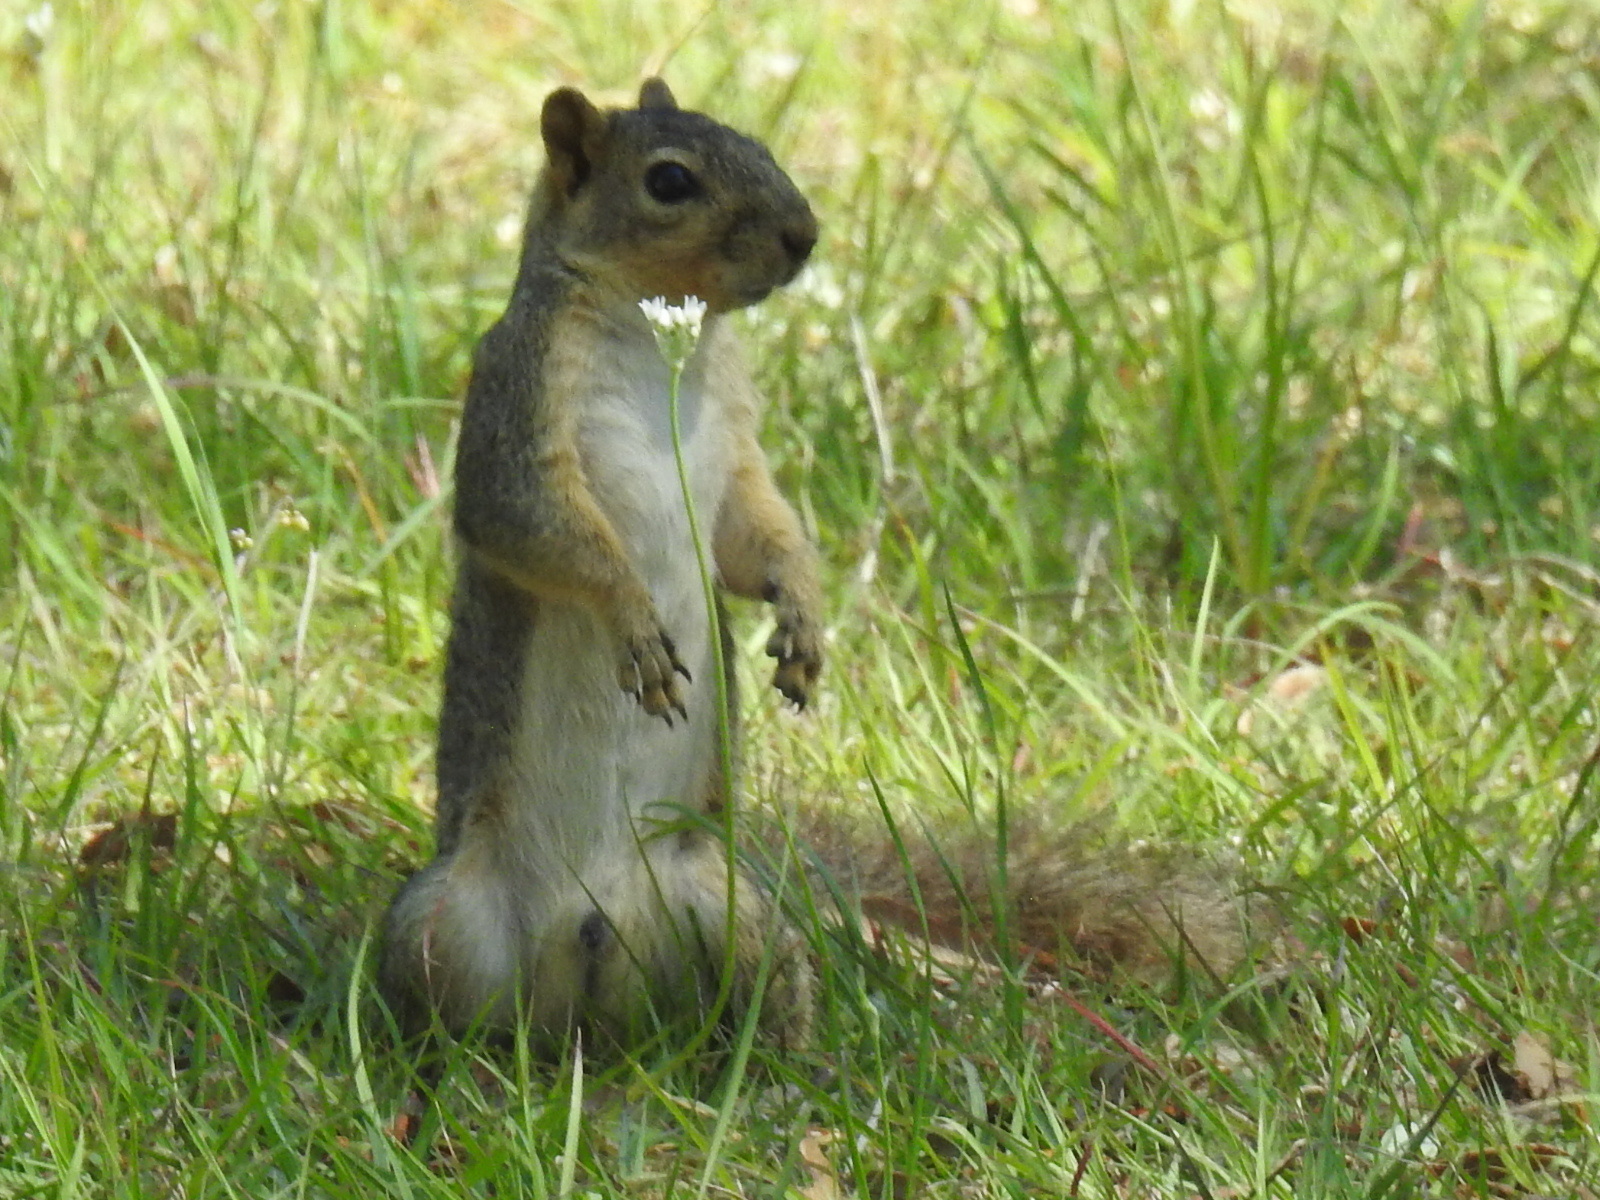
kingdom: Animalia
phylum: Chordata
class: Mammalia
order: Rodentia
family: Sciuridae
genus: Sciurus
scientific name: Sciurus niger
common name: Fox squirrel
